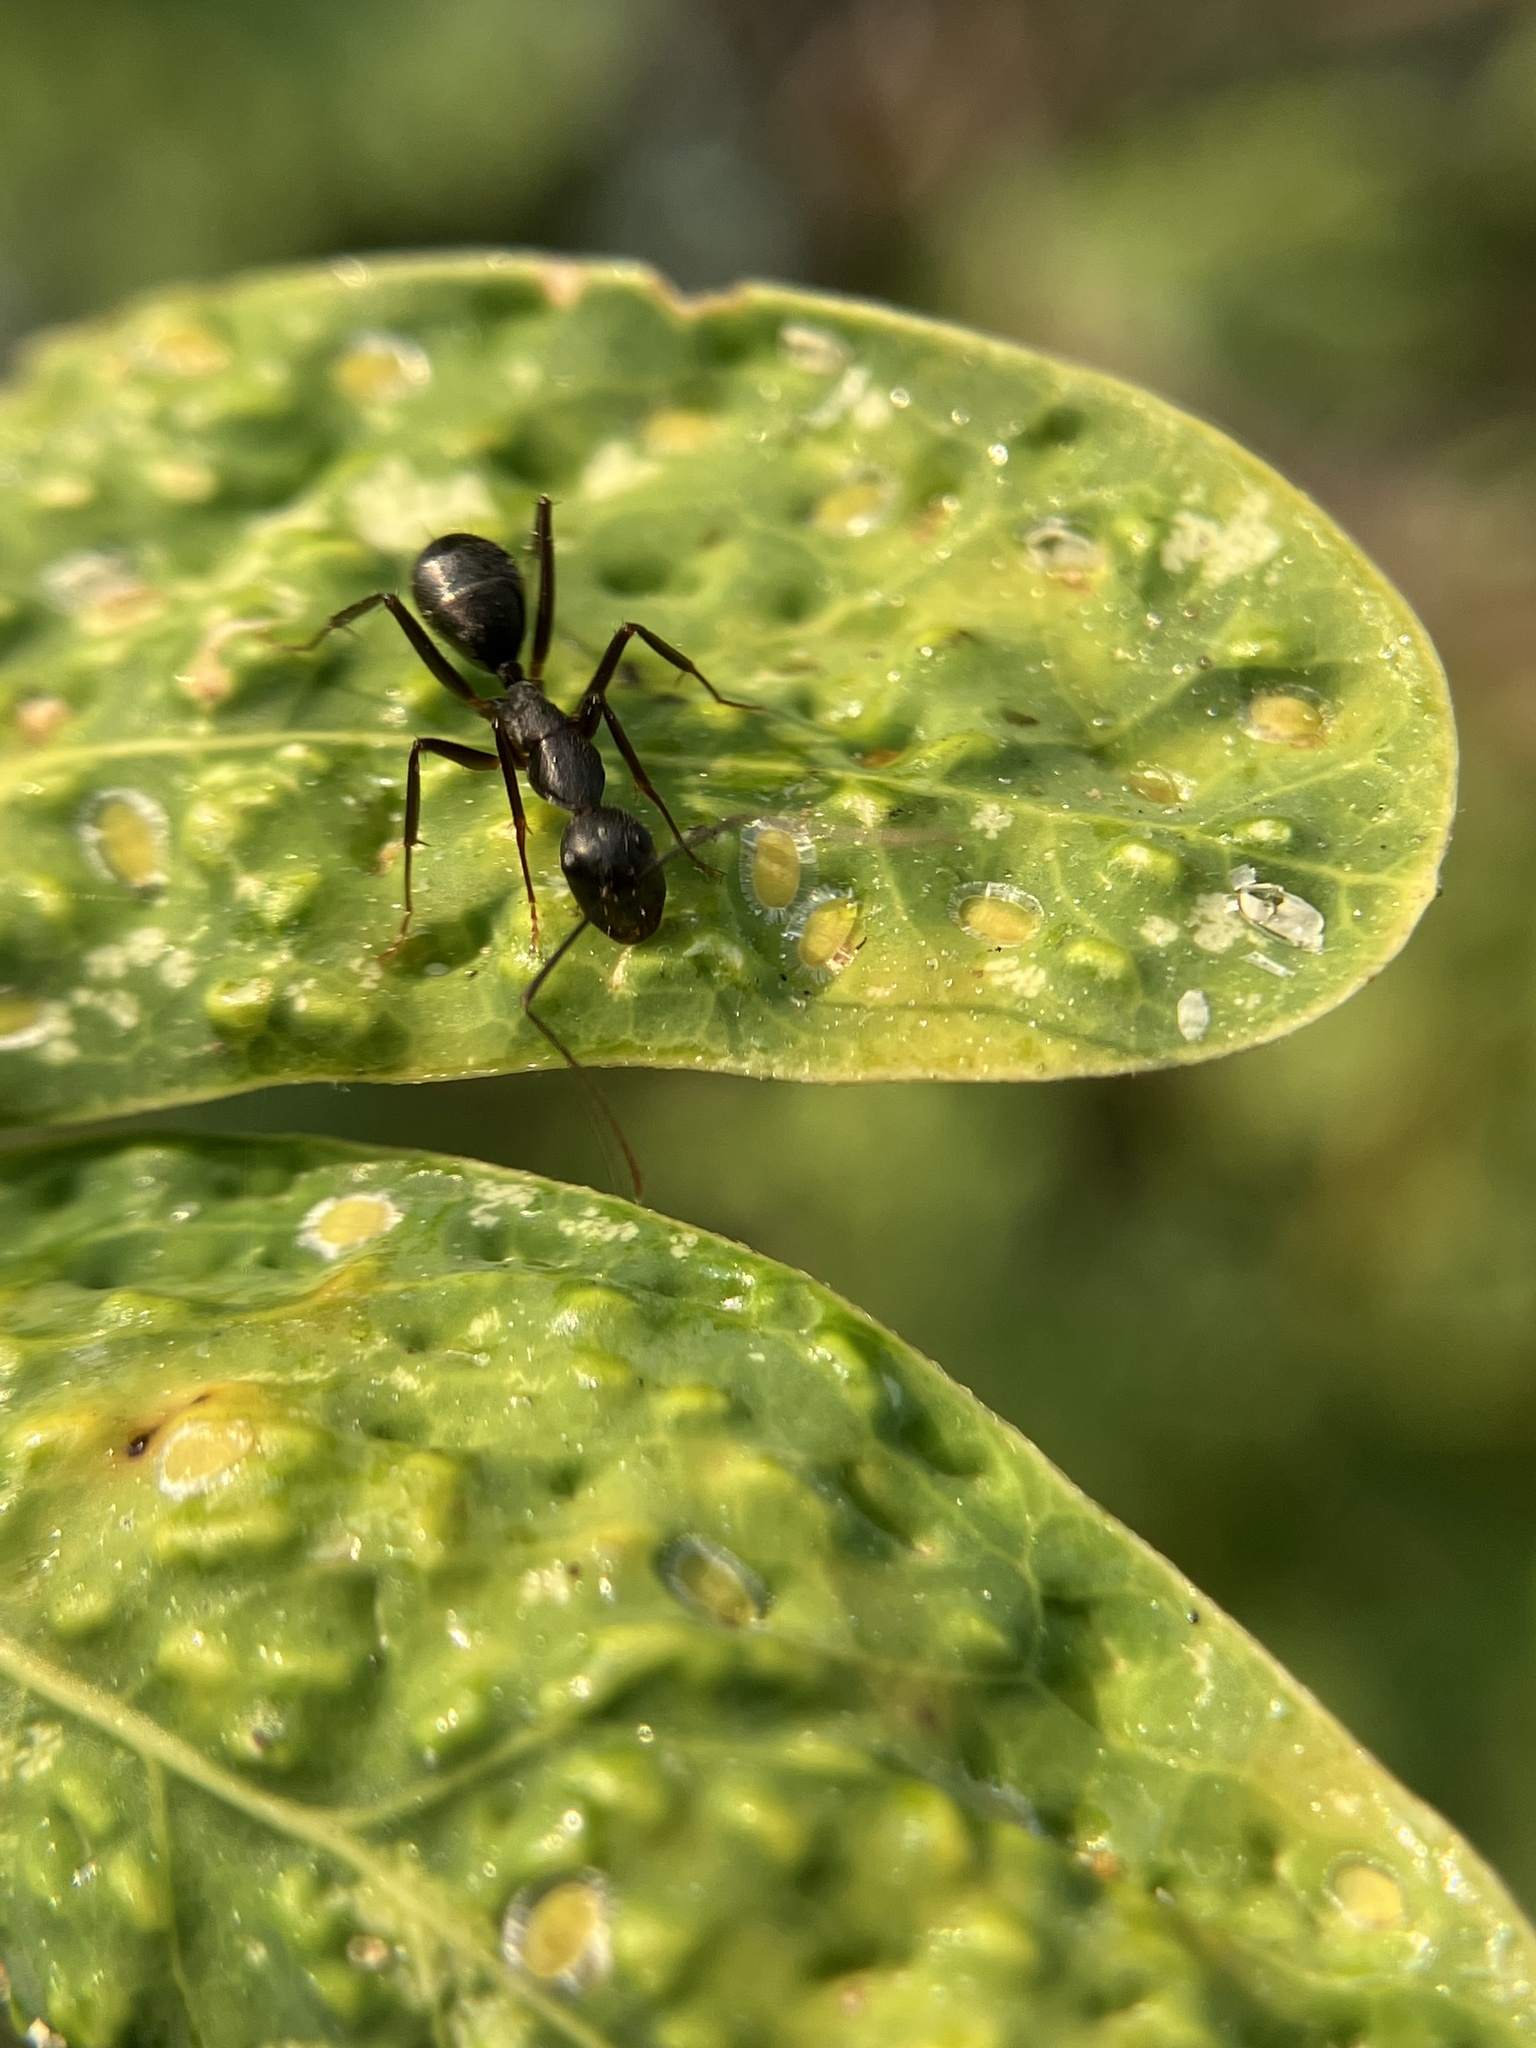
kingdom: Animalia
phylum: Arthropoda
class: Insecta
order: Hymenoptera
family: Formicidae
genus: Camponotus
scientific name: Camponotus compressus
